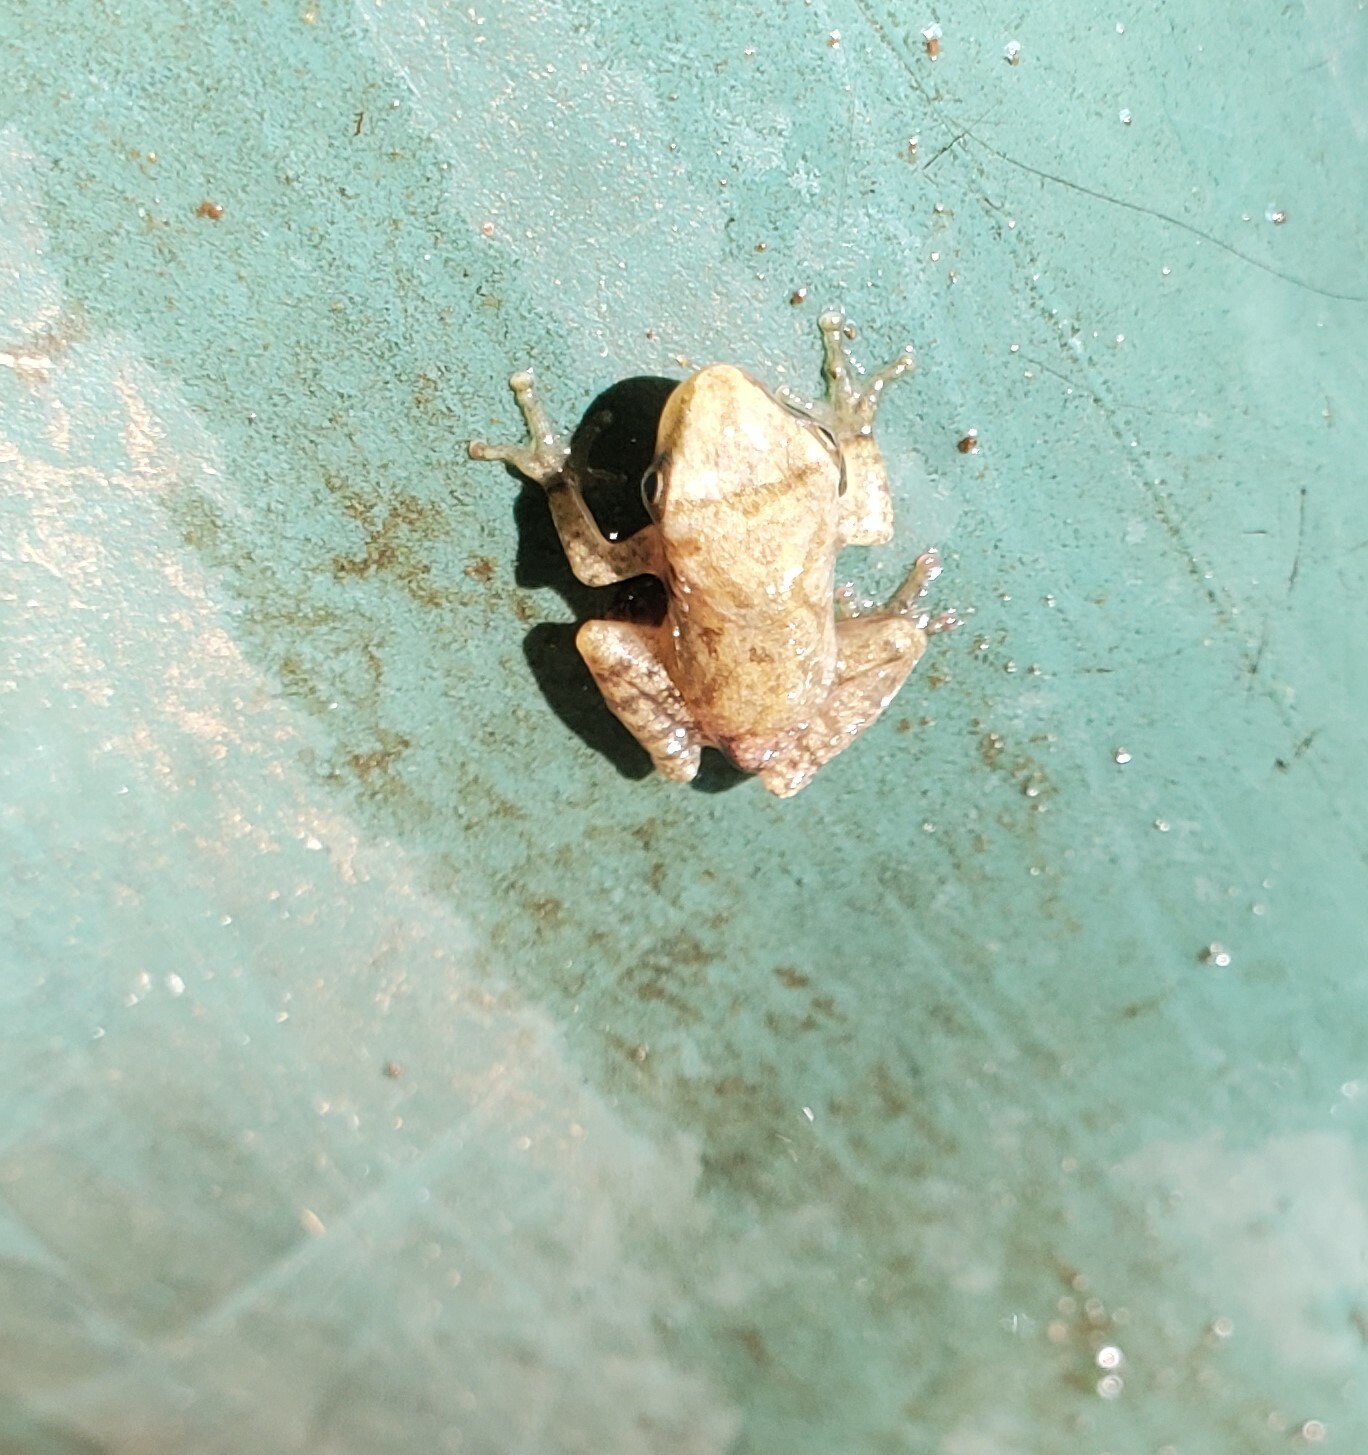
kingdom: Animalia
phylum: Chordata
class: Amphibia
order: Anura
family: Hylidae
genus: Pseudacris
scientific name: Pseudacris crucifer
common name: Spring peeper
